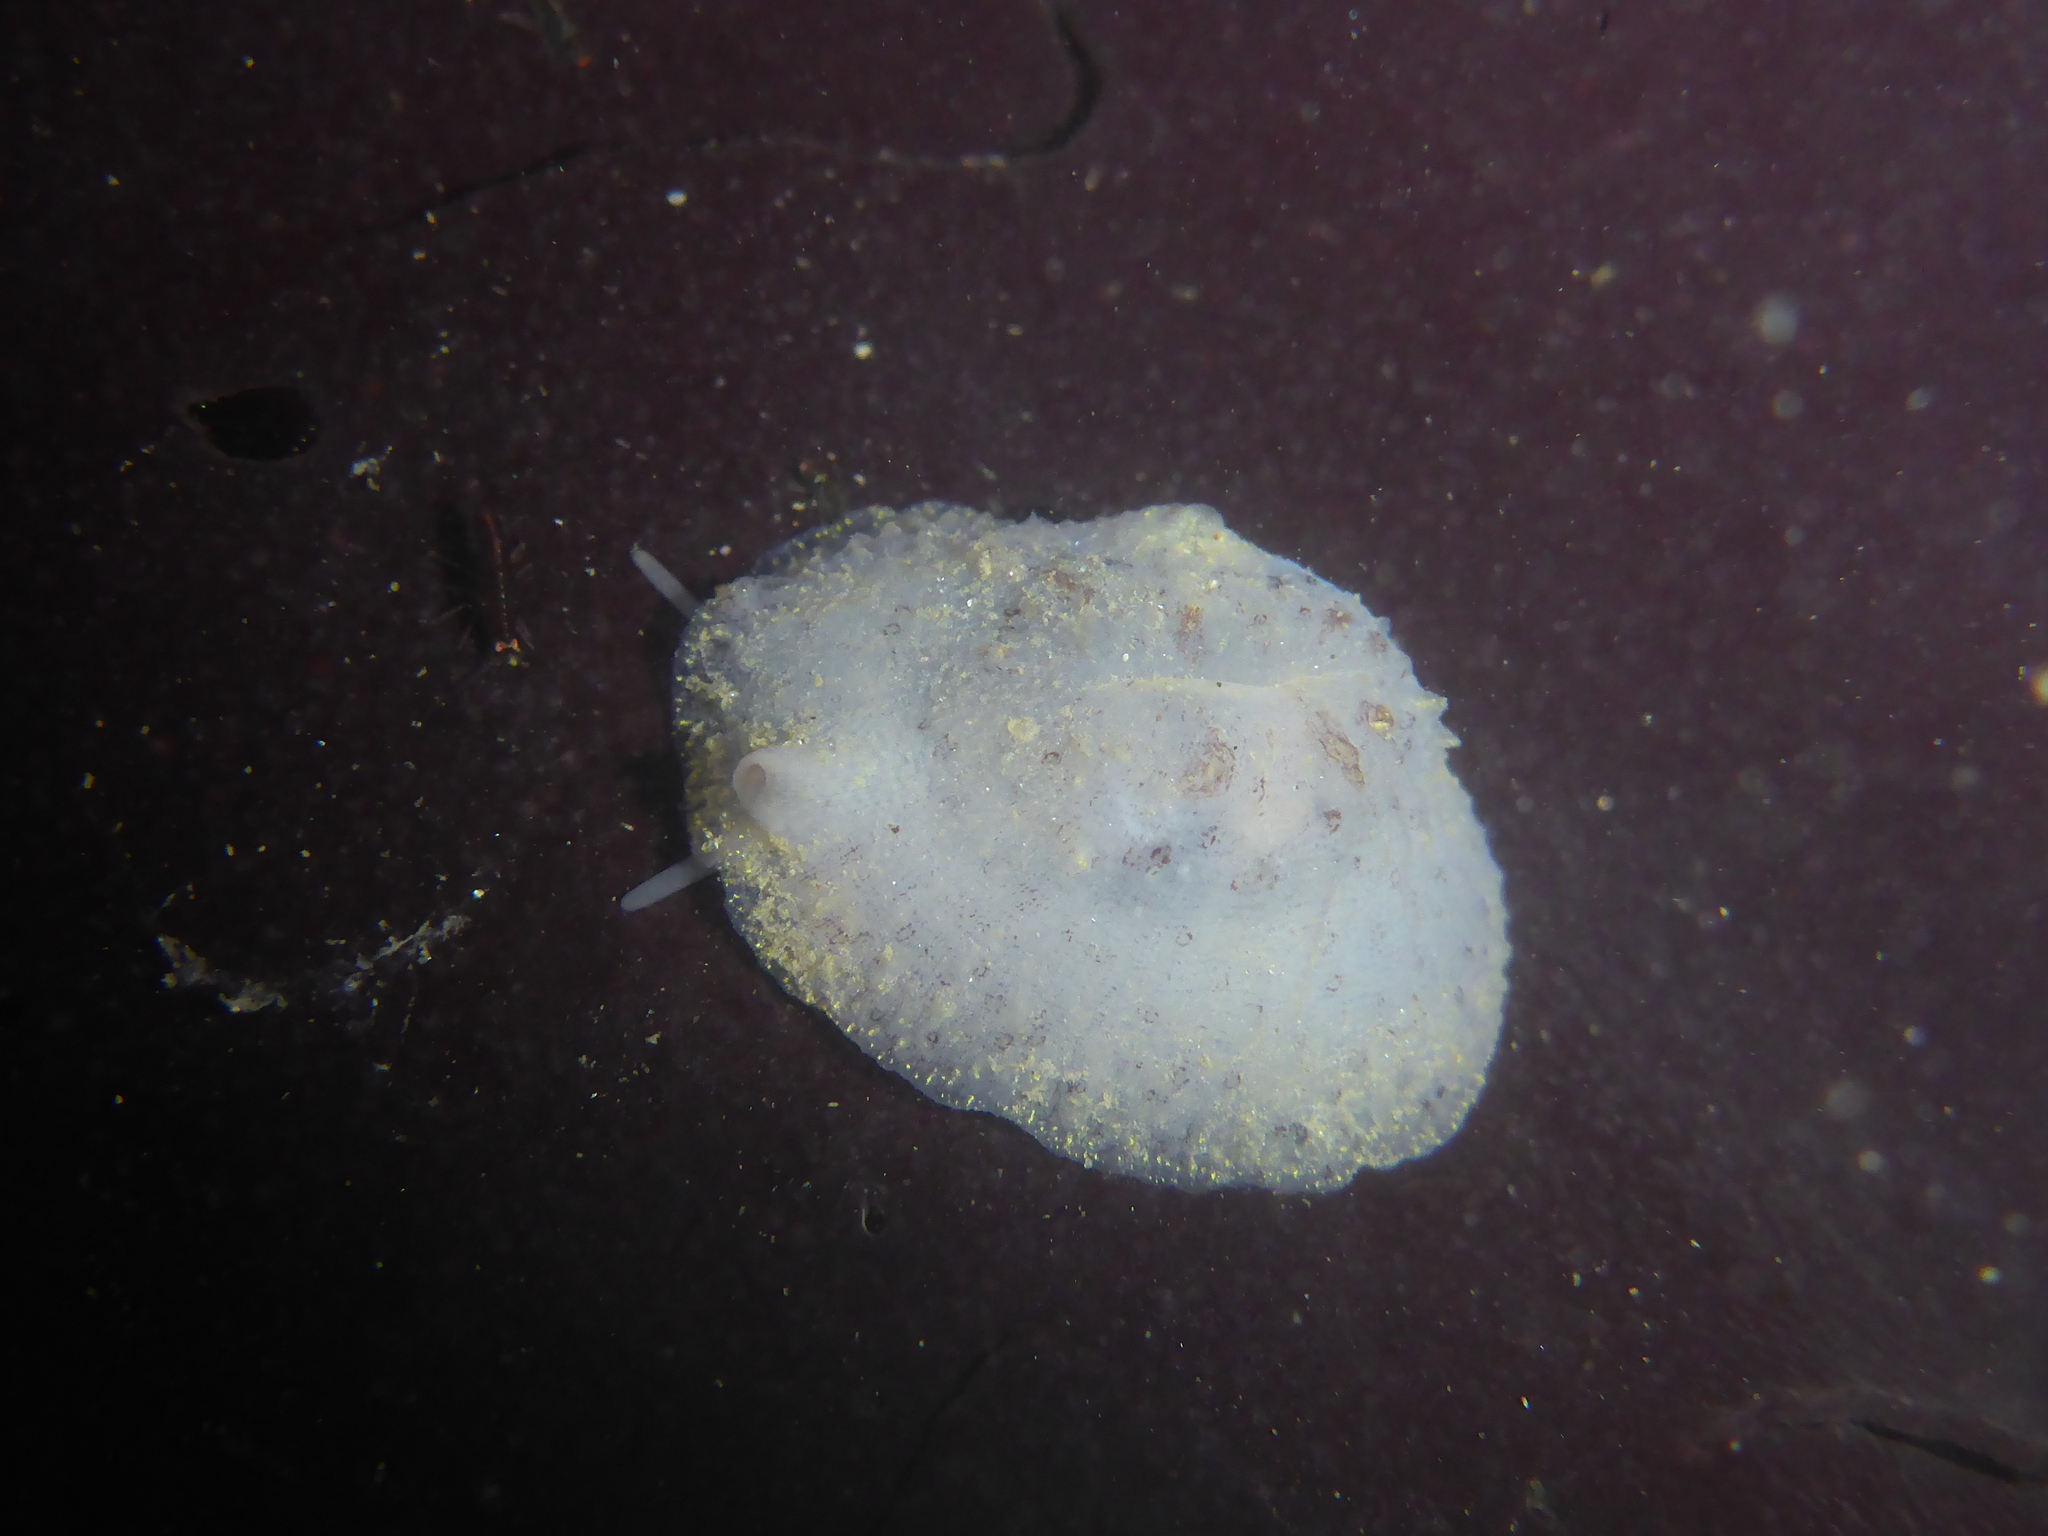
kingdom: Animalia
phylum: Mollusca
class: Gastropoda
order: Littorinimorpha
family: Velutinidae
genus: Marsenina
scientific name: Marsenina rhombica
